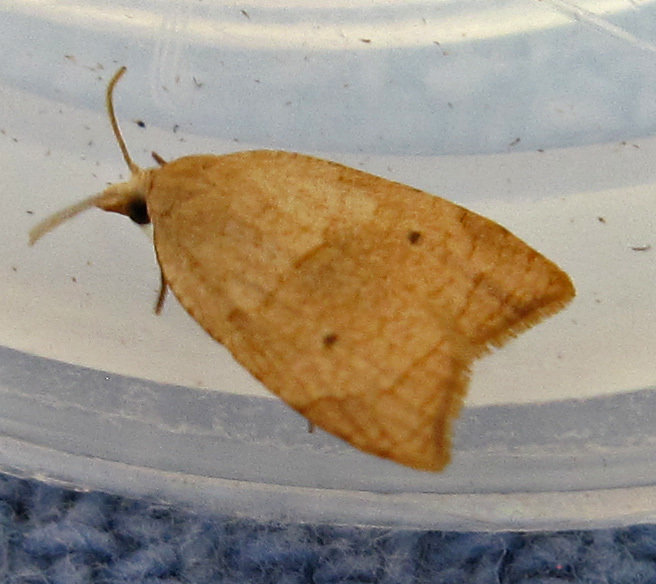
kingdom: Animalia
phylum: Arthropoda
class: Insecta
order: Lepidoptera
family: Tortricidae
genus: Coelostathma
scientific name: Coelostathma discopunctana
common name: Batman moth
